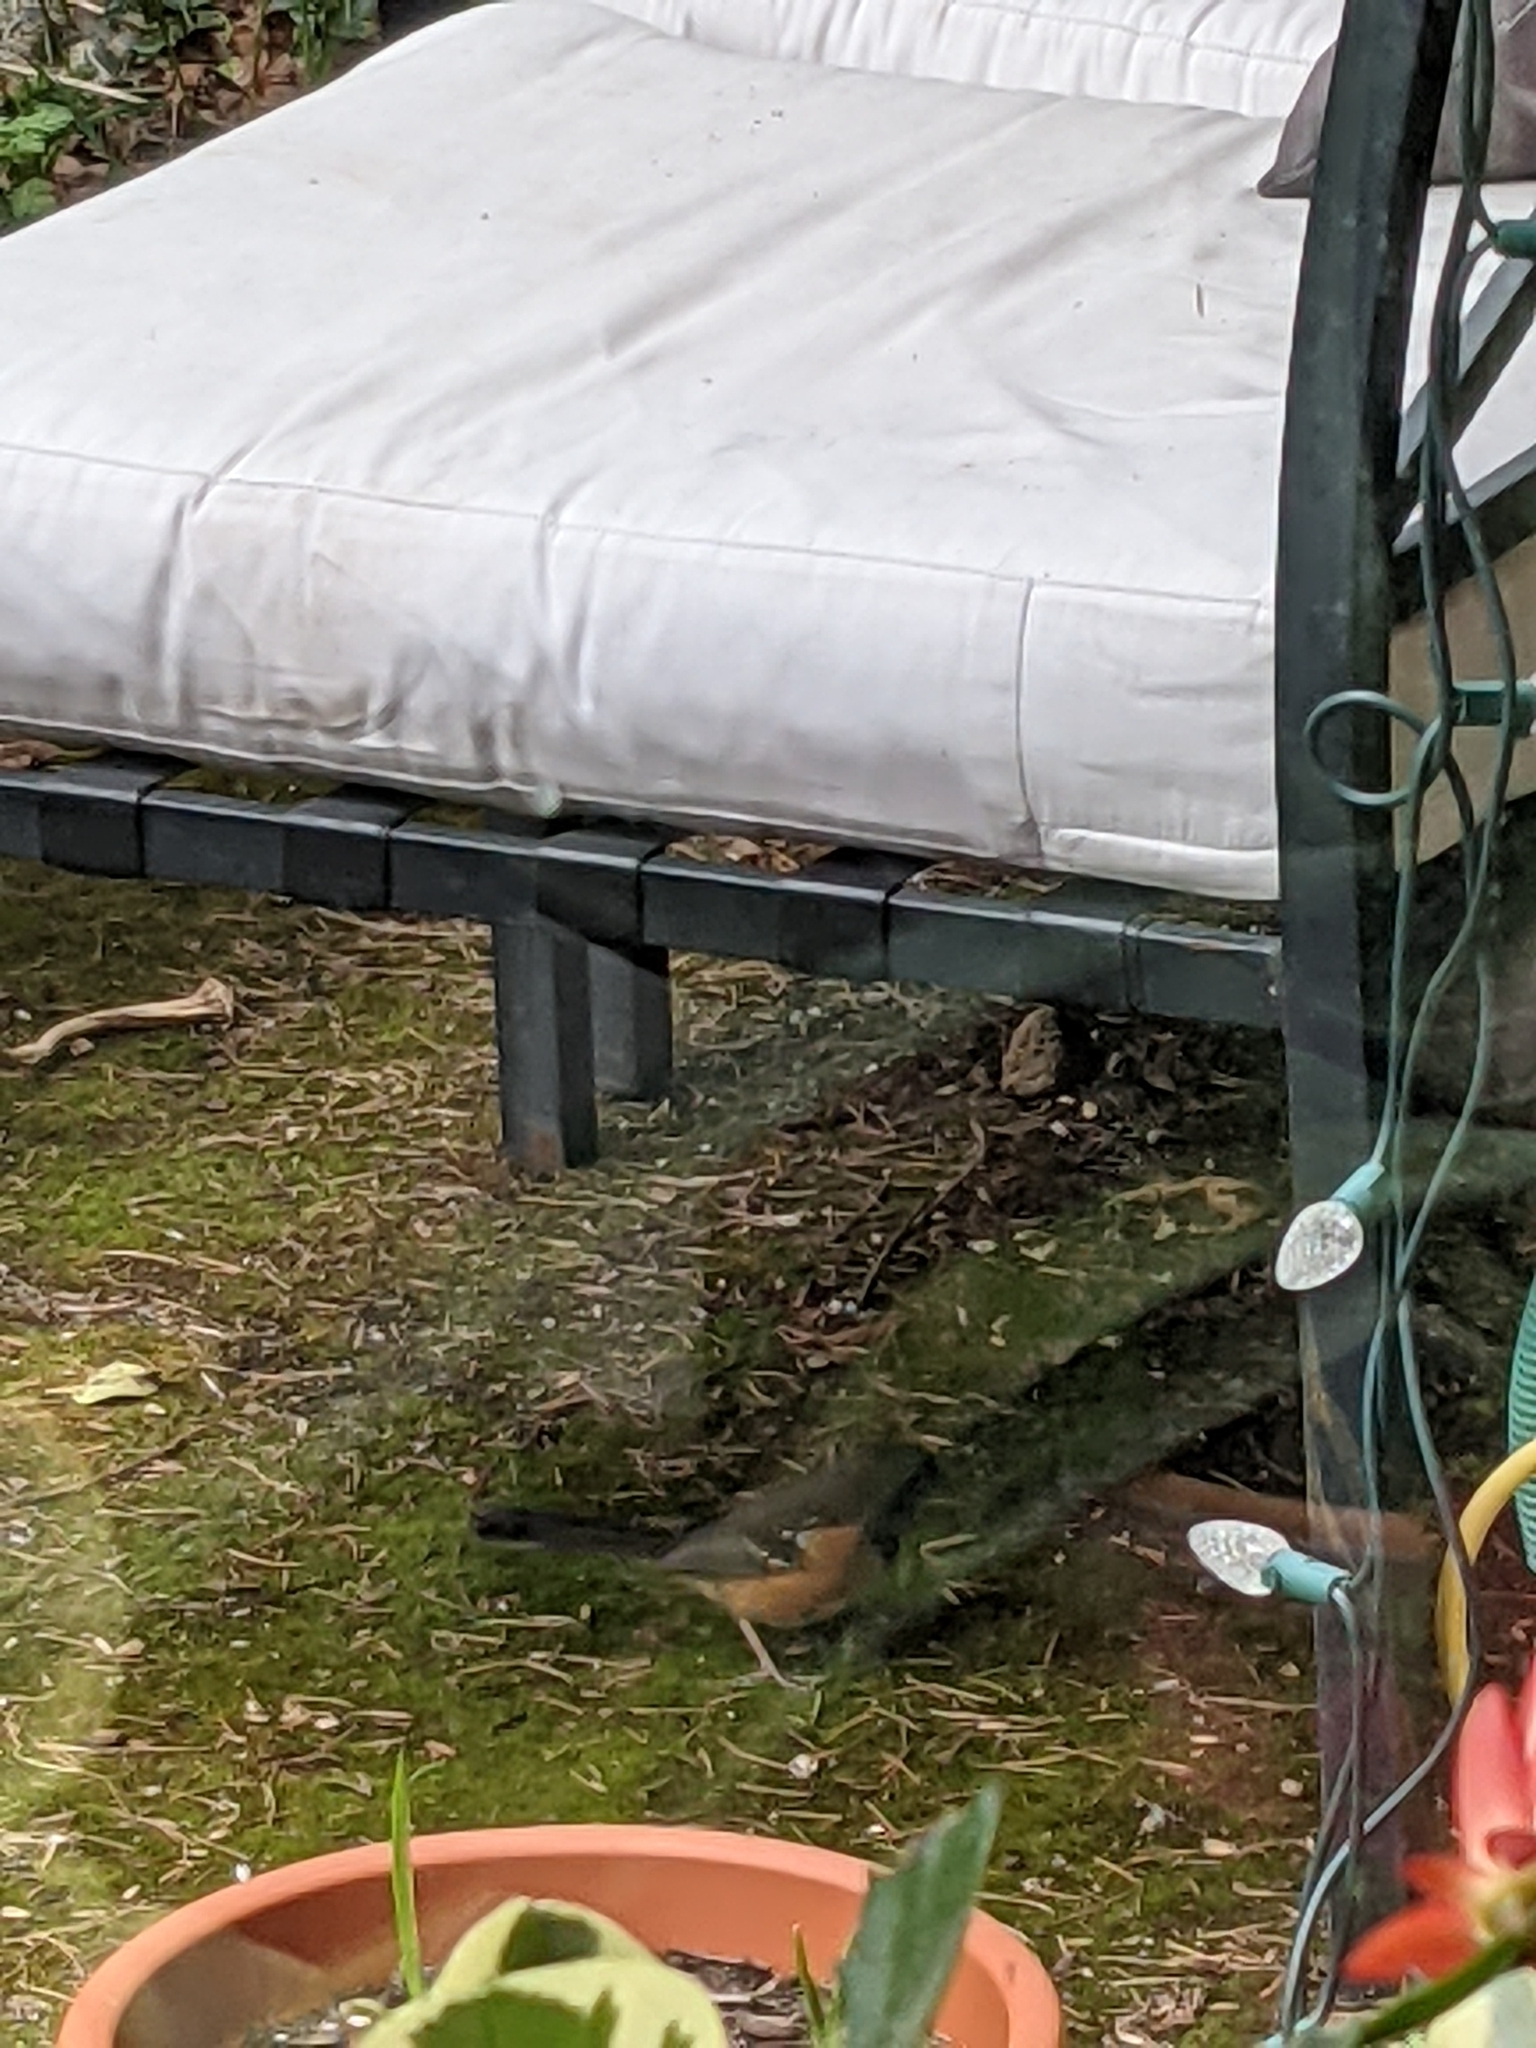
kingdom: Animalia
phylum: Chordata
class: Aves
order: Passeriformes
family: Passerellidae
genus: Pipilo
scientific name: Pipilo maculatus
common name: Spotted towhee
